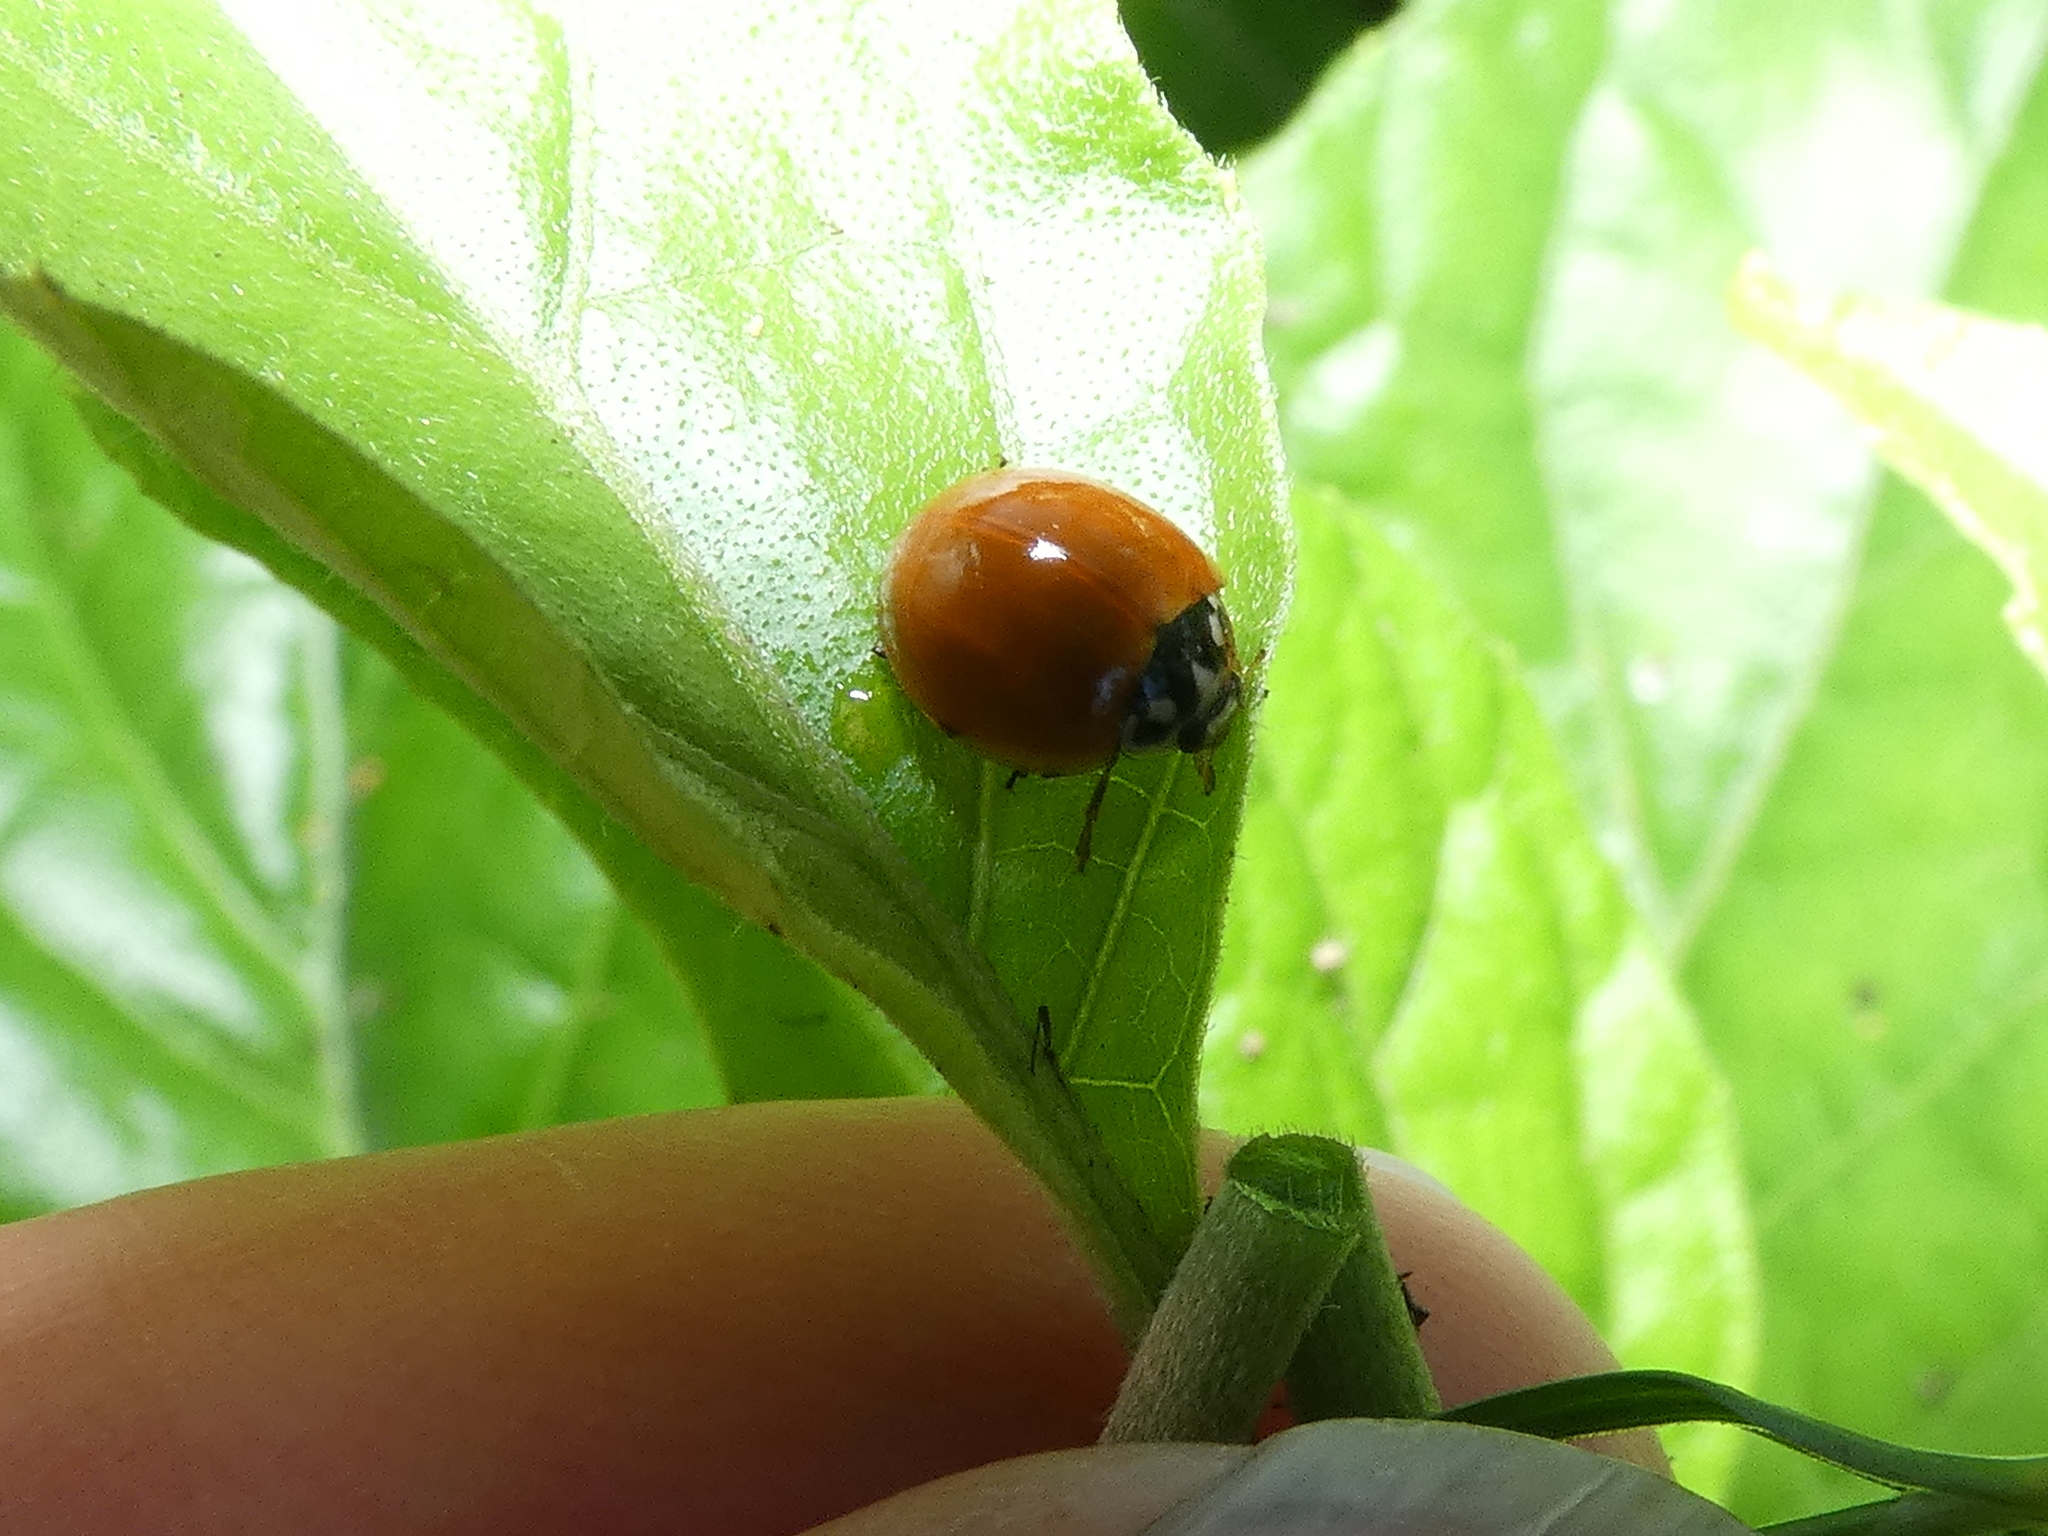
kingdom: Animalia
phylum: Arthropoda
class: Insecta
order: Coleoptera
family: Coccinellidae
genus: Cycloneda
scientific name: Cycloneda sanguinea
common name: Ladybird beetle
